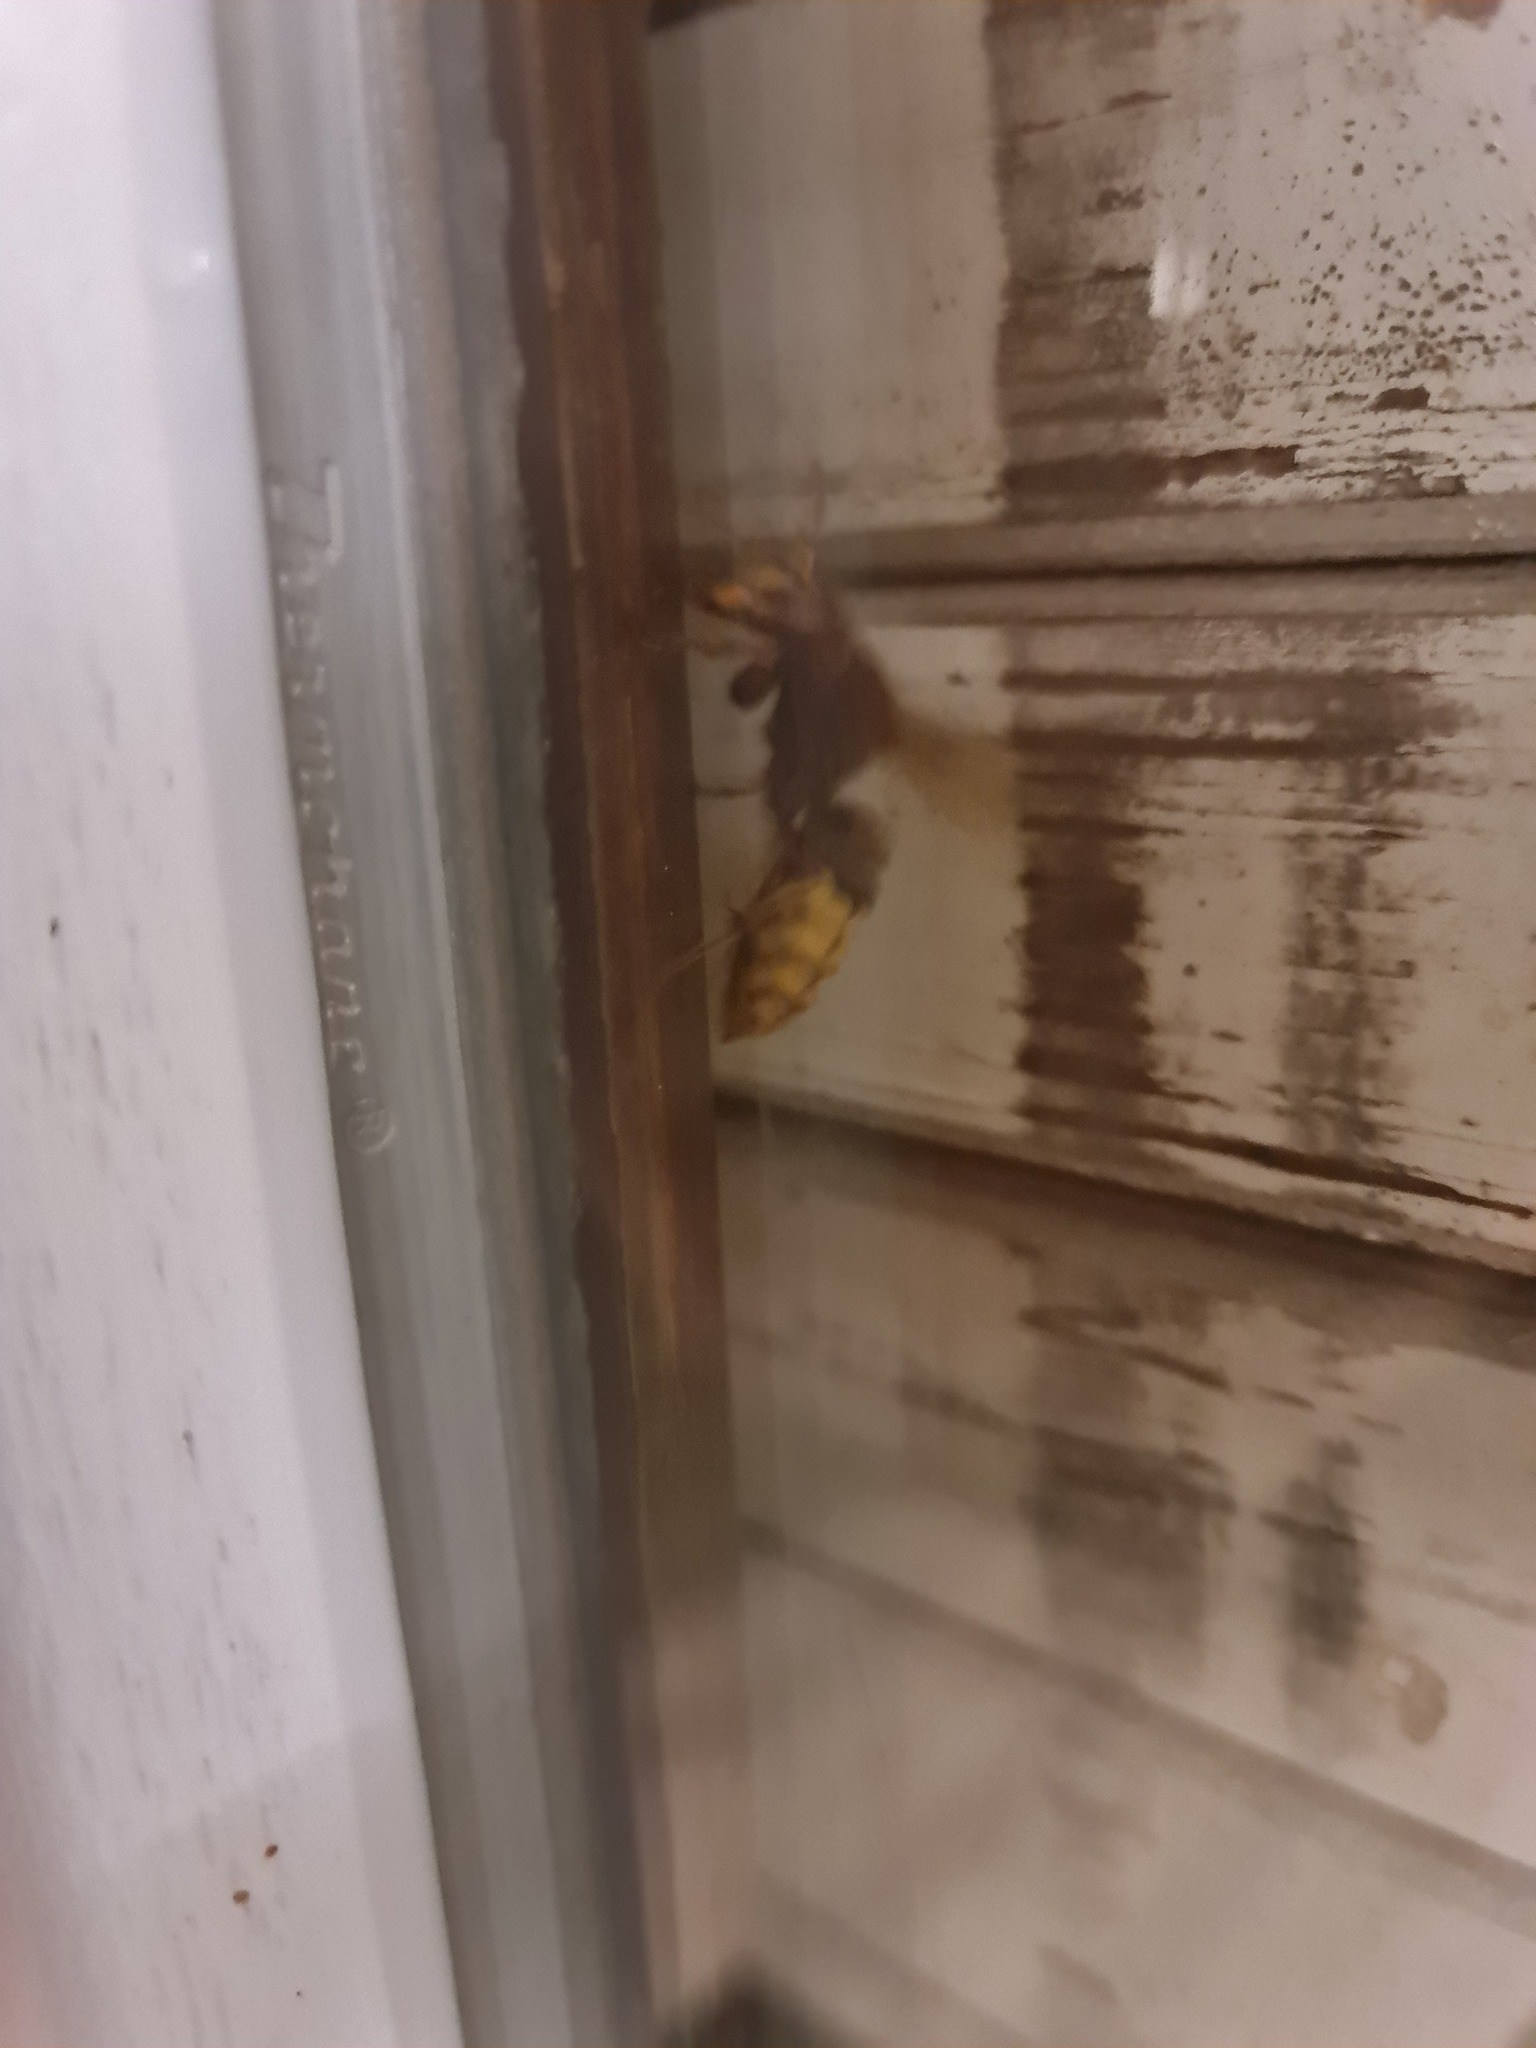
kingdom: Animalia
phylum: Arthropoda
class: Insecta
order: Hymenoptera
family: Vespidae
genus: Vespa
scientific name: Vespa crabro
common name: Hornet
